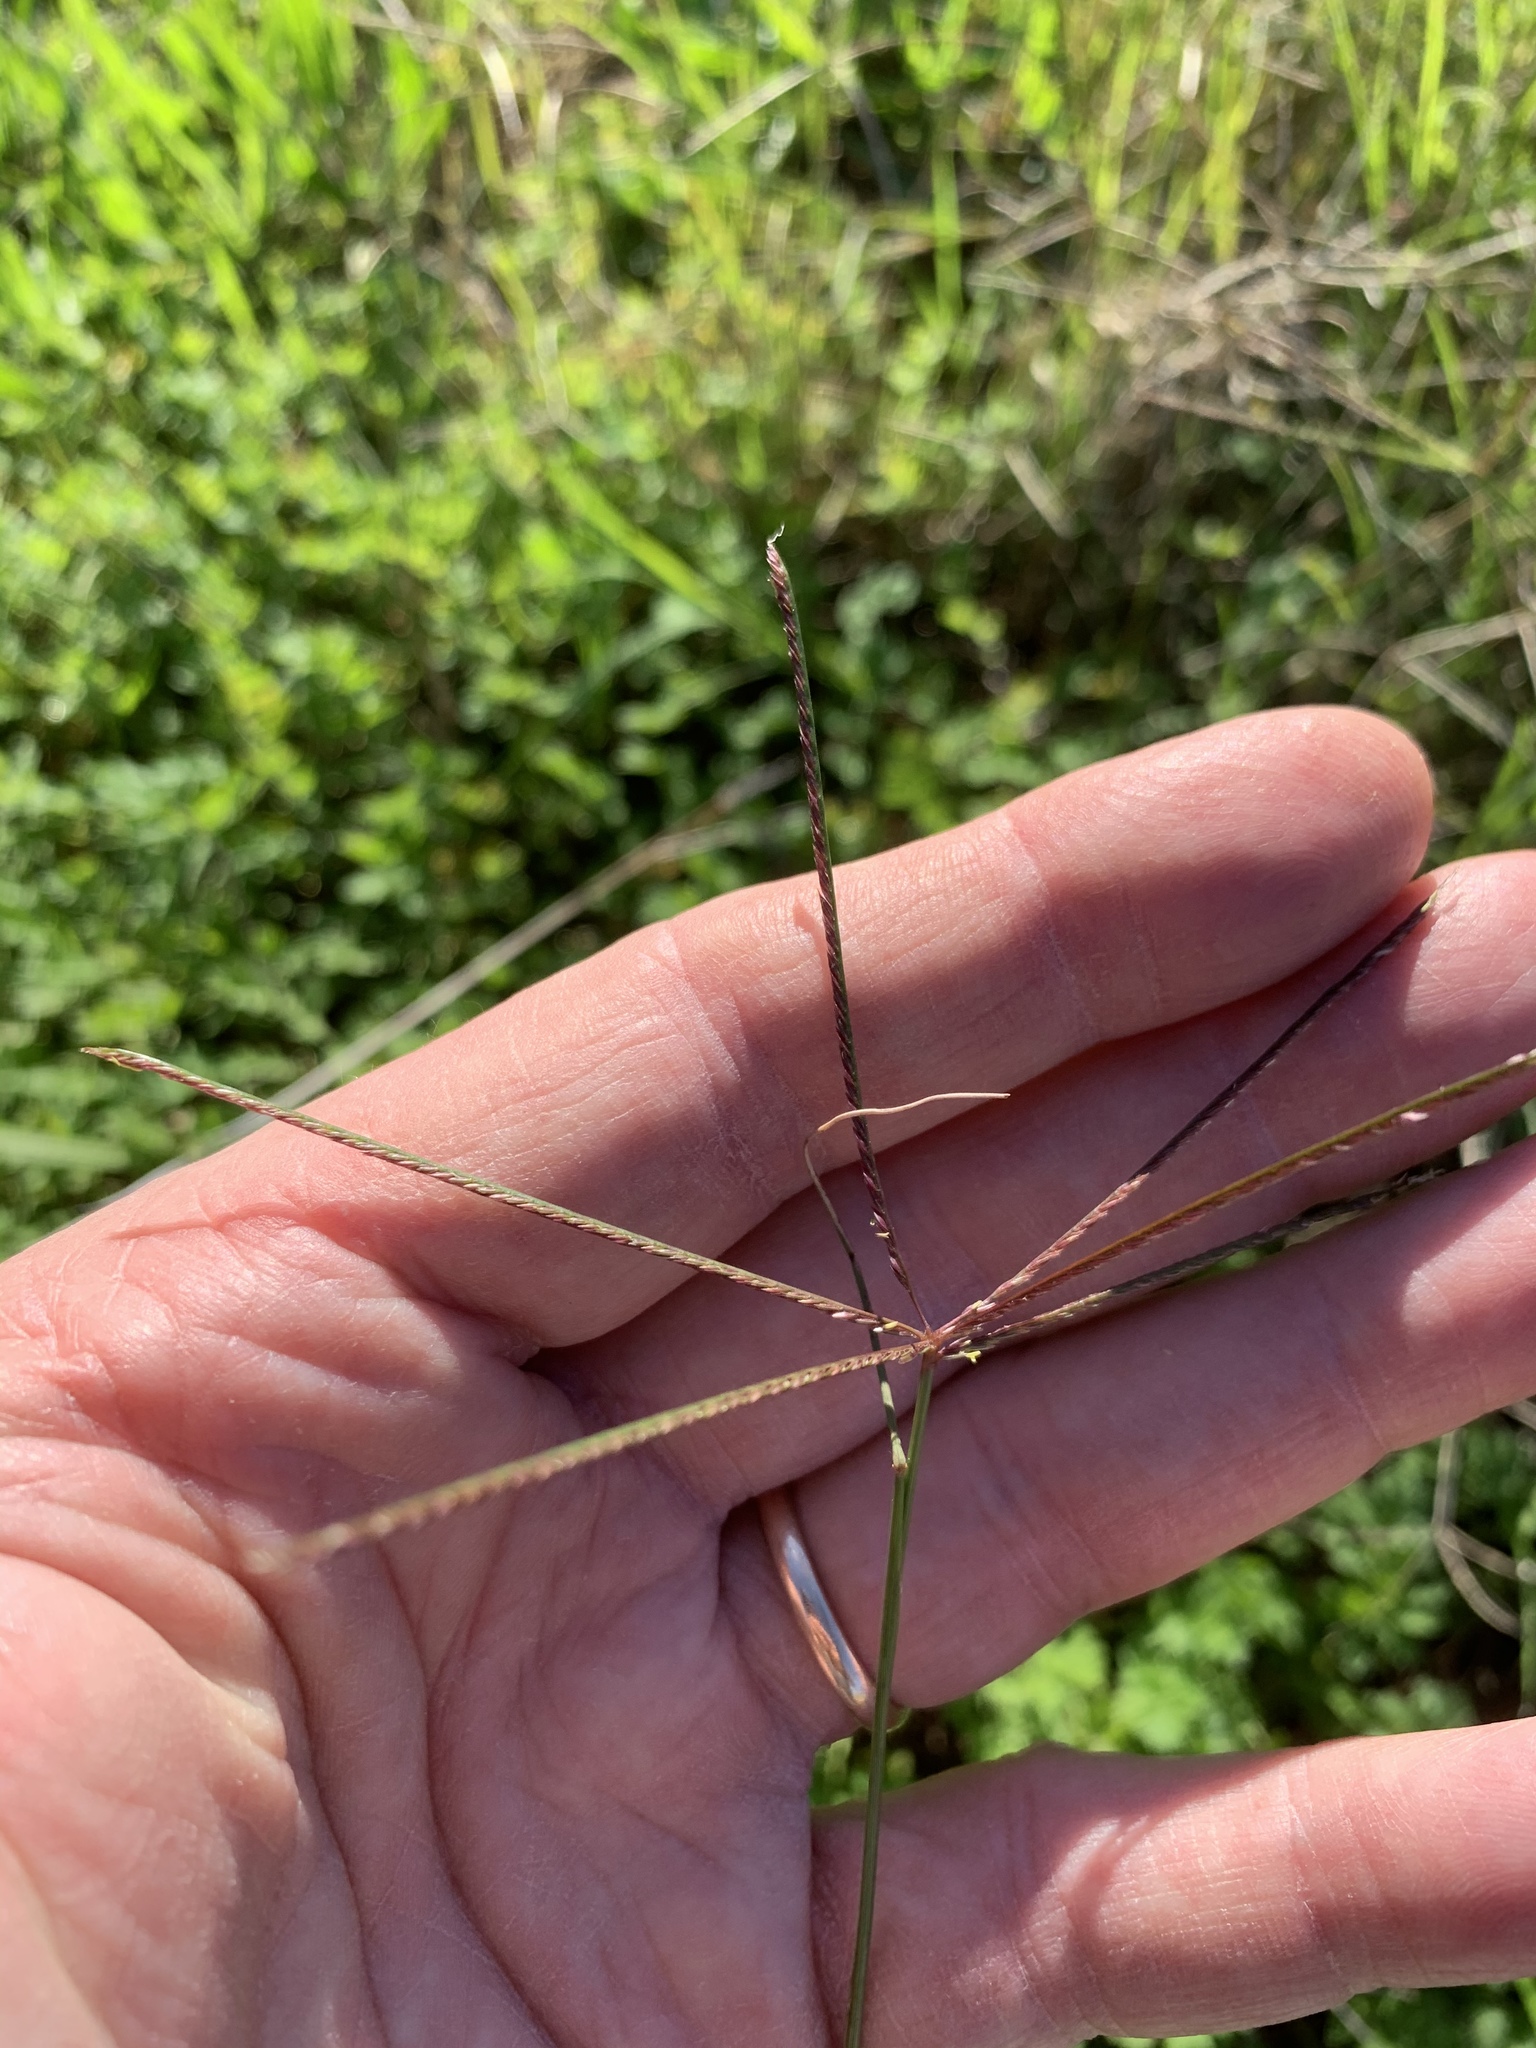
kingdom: Plantae
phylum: Tracheophyta
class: Liliopsida
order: Poales
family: Poaceae
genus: Cynodon
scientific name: Cynodon dactylon
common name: Bermuda grass
